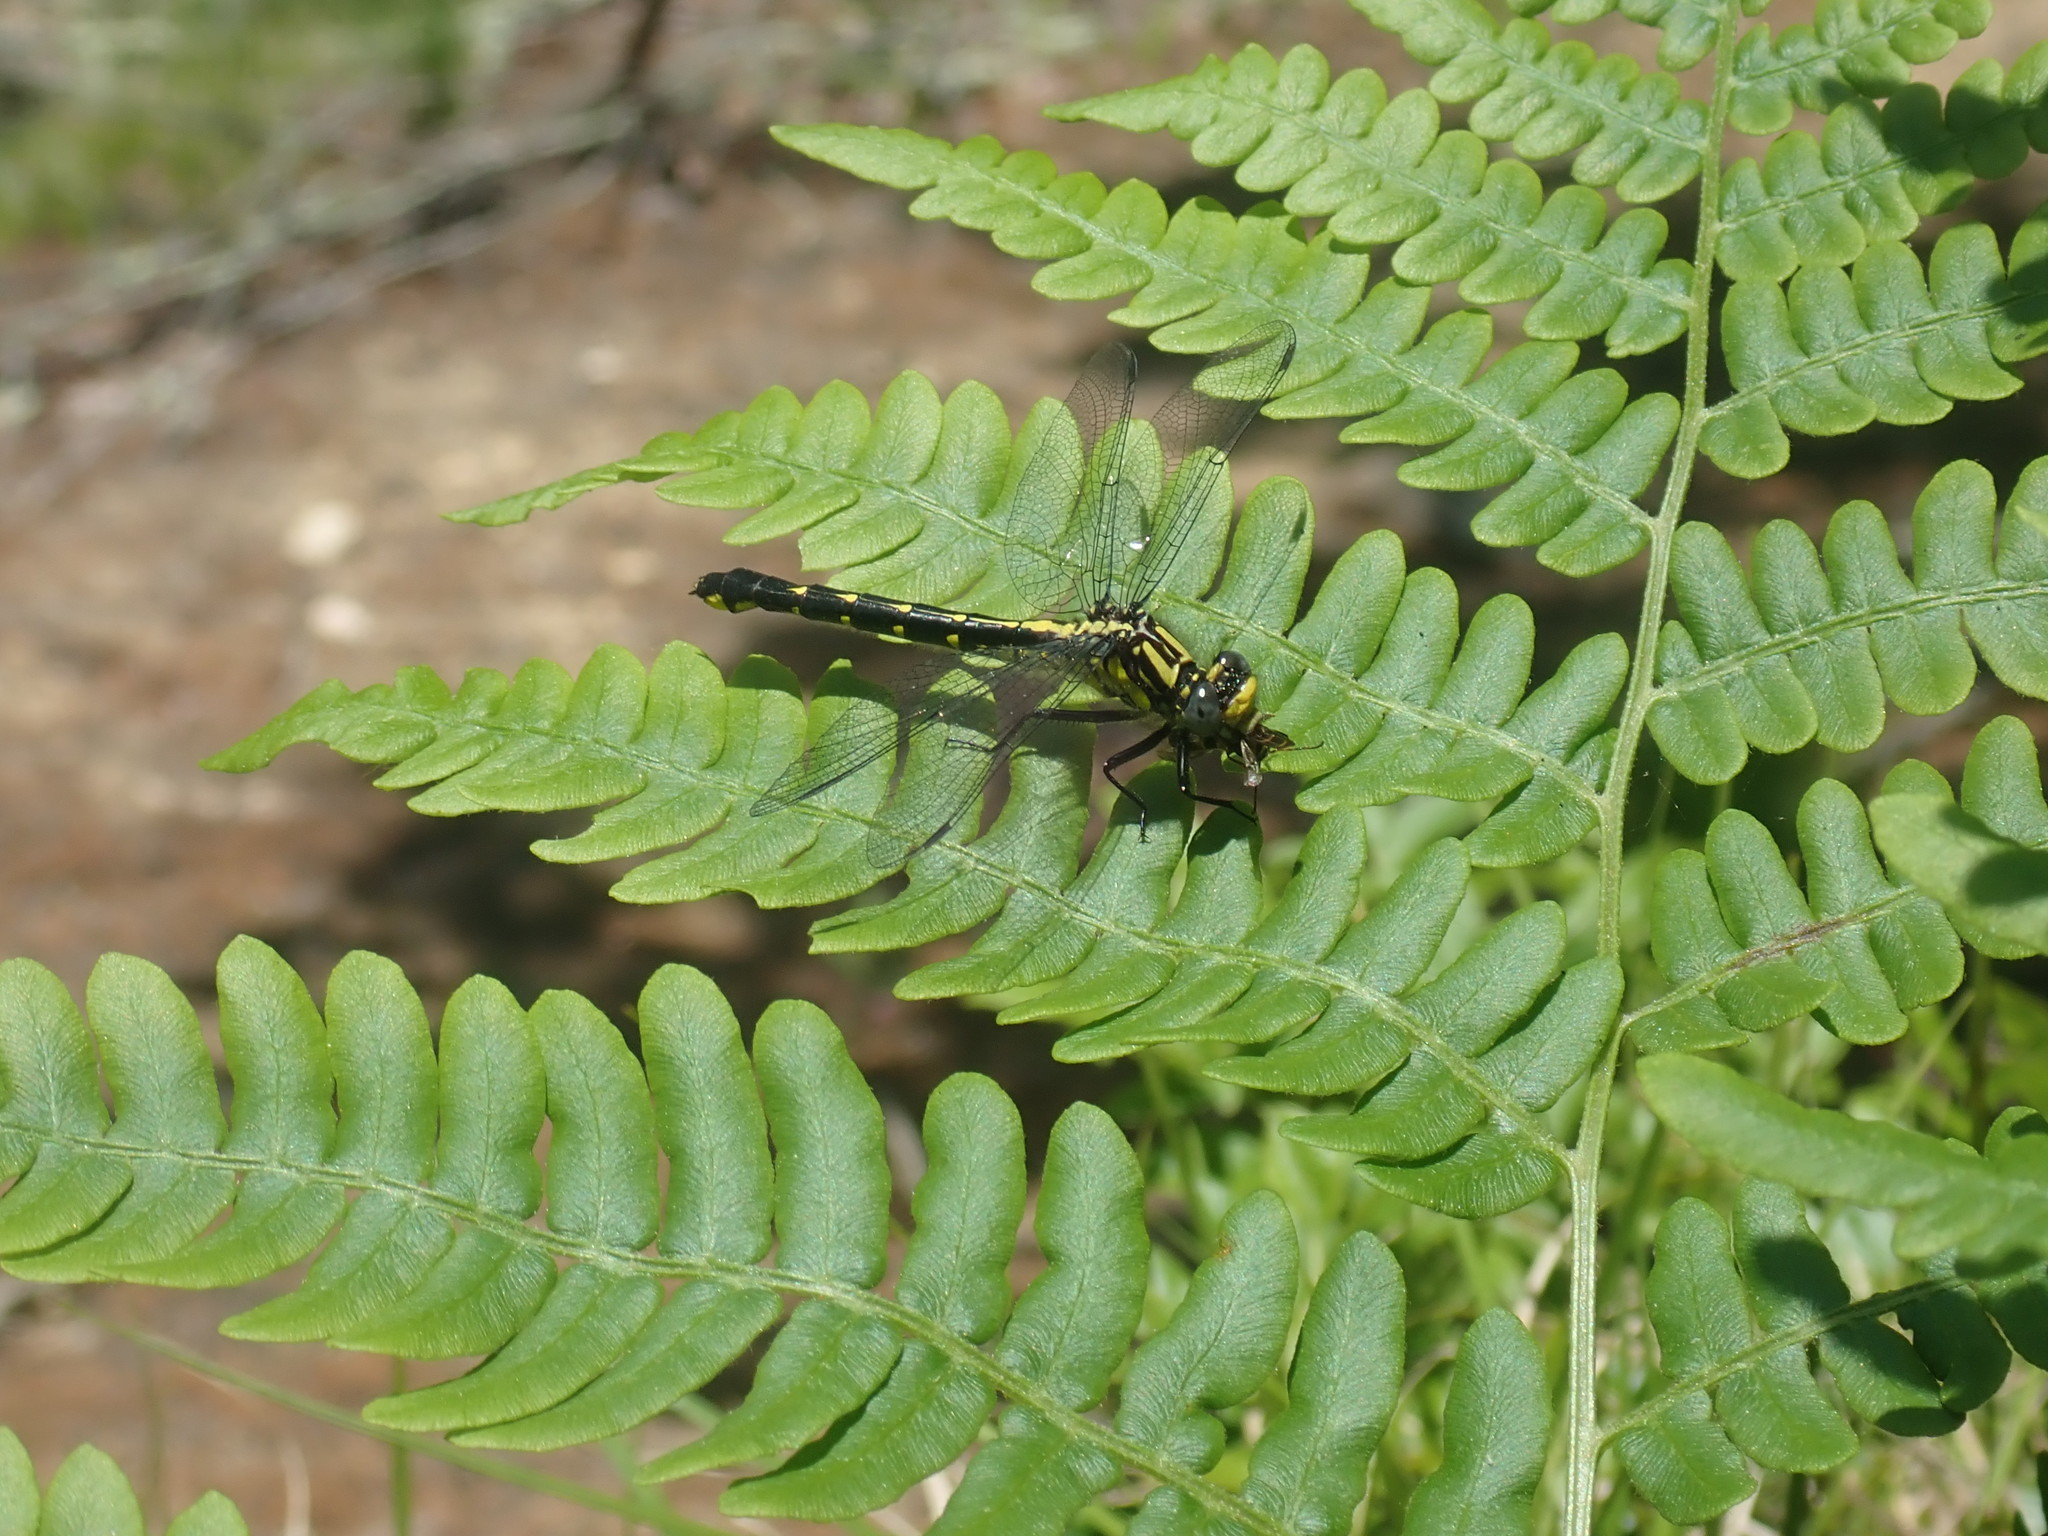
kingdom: Animalia
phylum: Arthropoda
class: Insecta
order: Odonata
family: Gomphidae
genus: Hylogomphus
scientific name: Hylogomphus abbreviatus
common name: Spine-crowned clubtail
